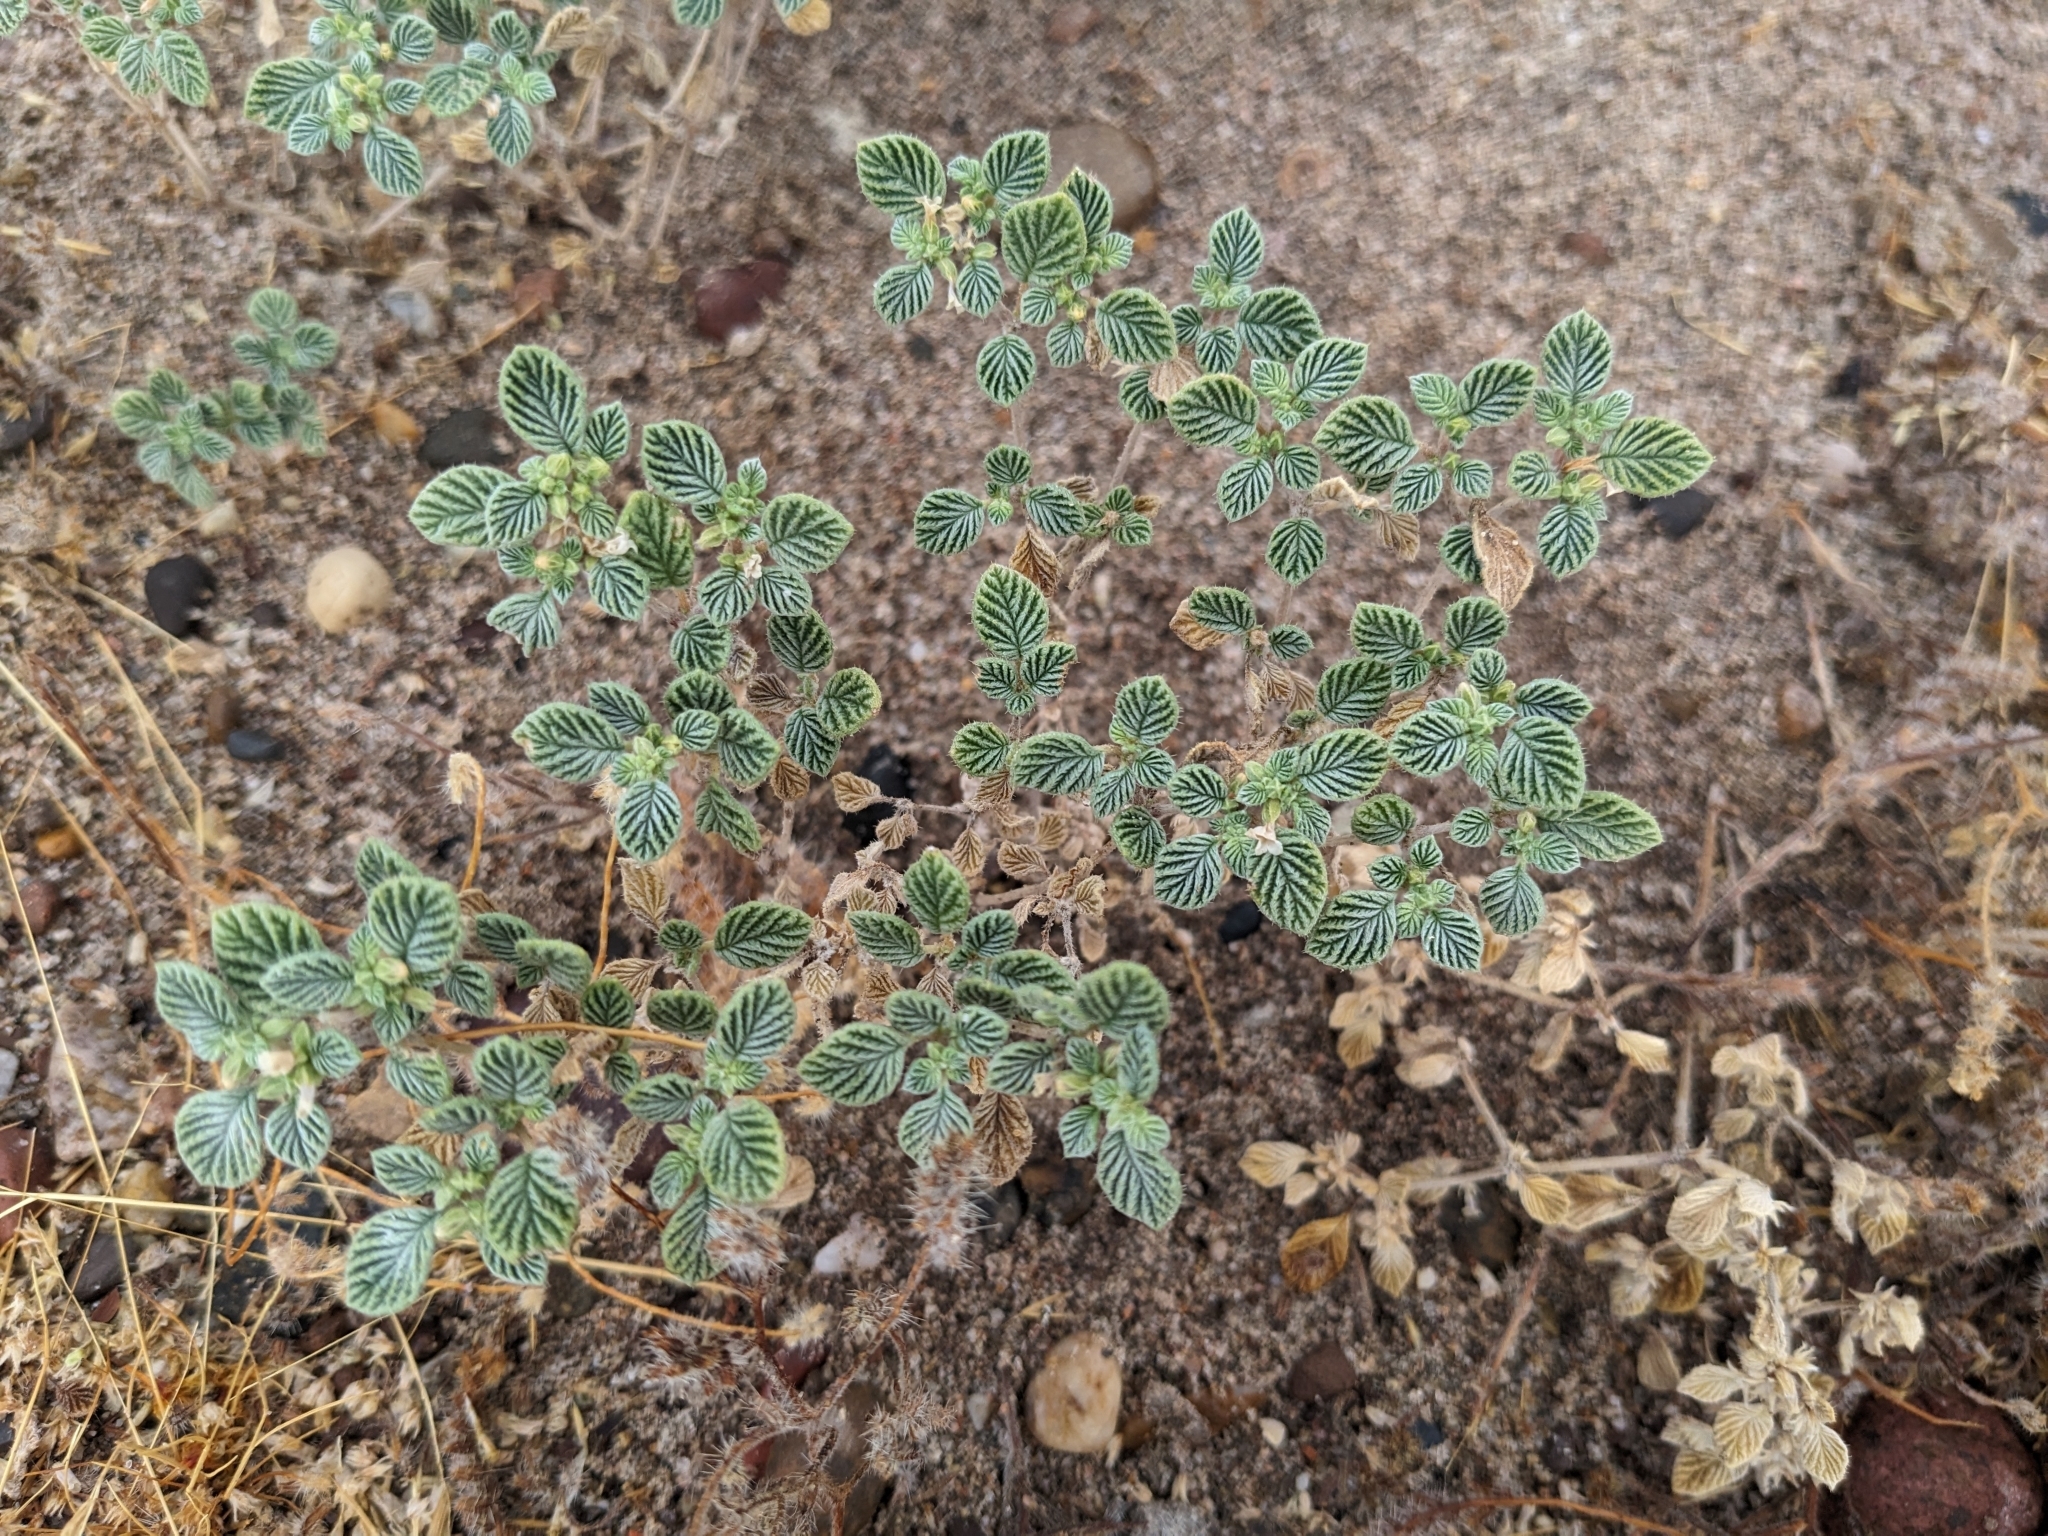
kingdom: Plantae
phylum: Tracheophyta
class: Magnoliopsida
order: Boraginales
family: Ehretiaceae
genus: Tiquilia
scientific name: Tiquilia plicata
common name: Fan-leaf tiquilia
